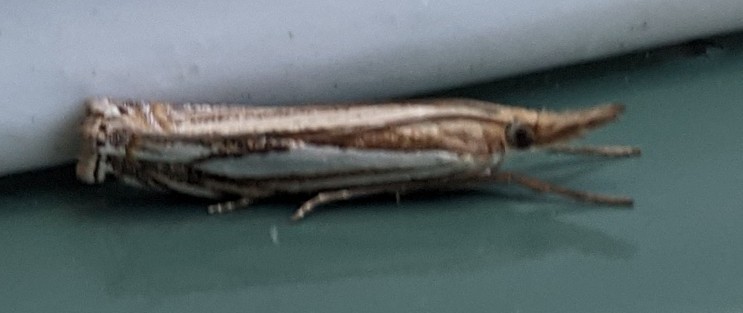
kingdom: Animalia
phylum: Arthropoda
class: Insecta
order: Lepidoptera
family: Crambidae
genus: Crambus
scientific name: Crambus saltuellus
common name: Pasture grass-veneer
